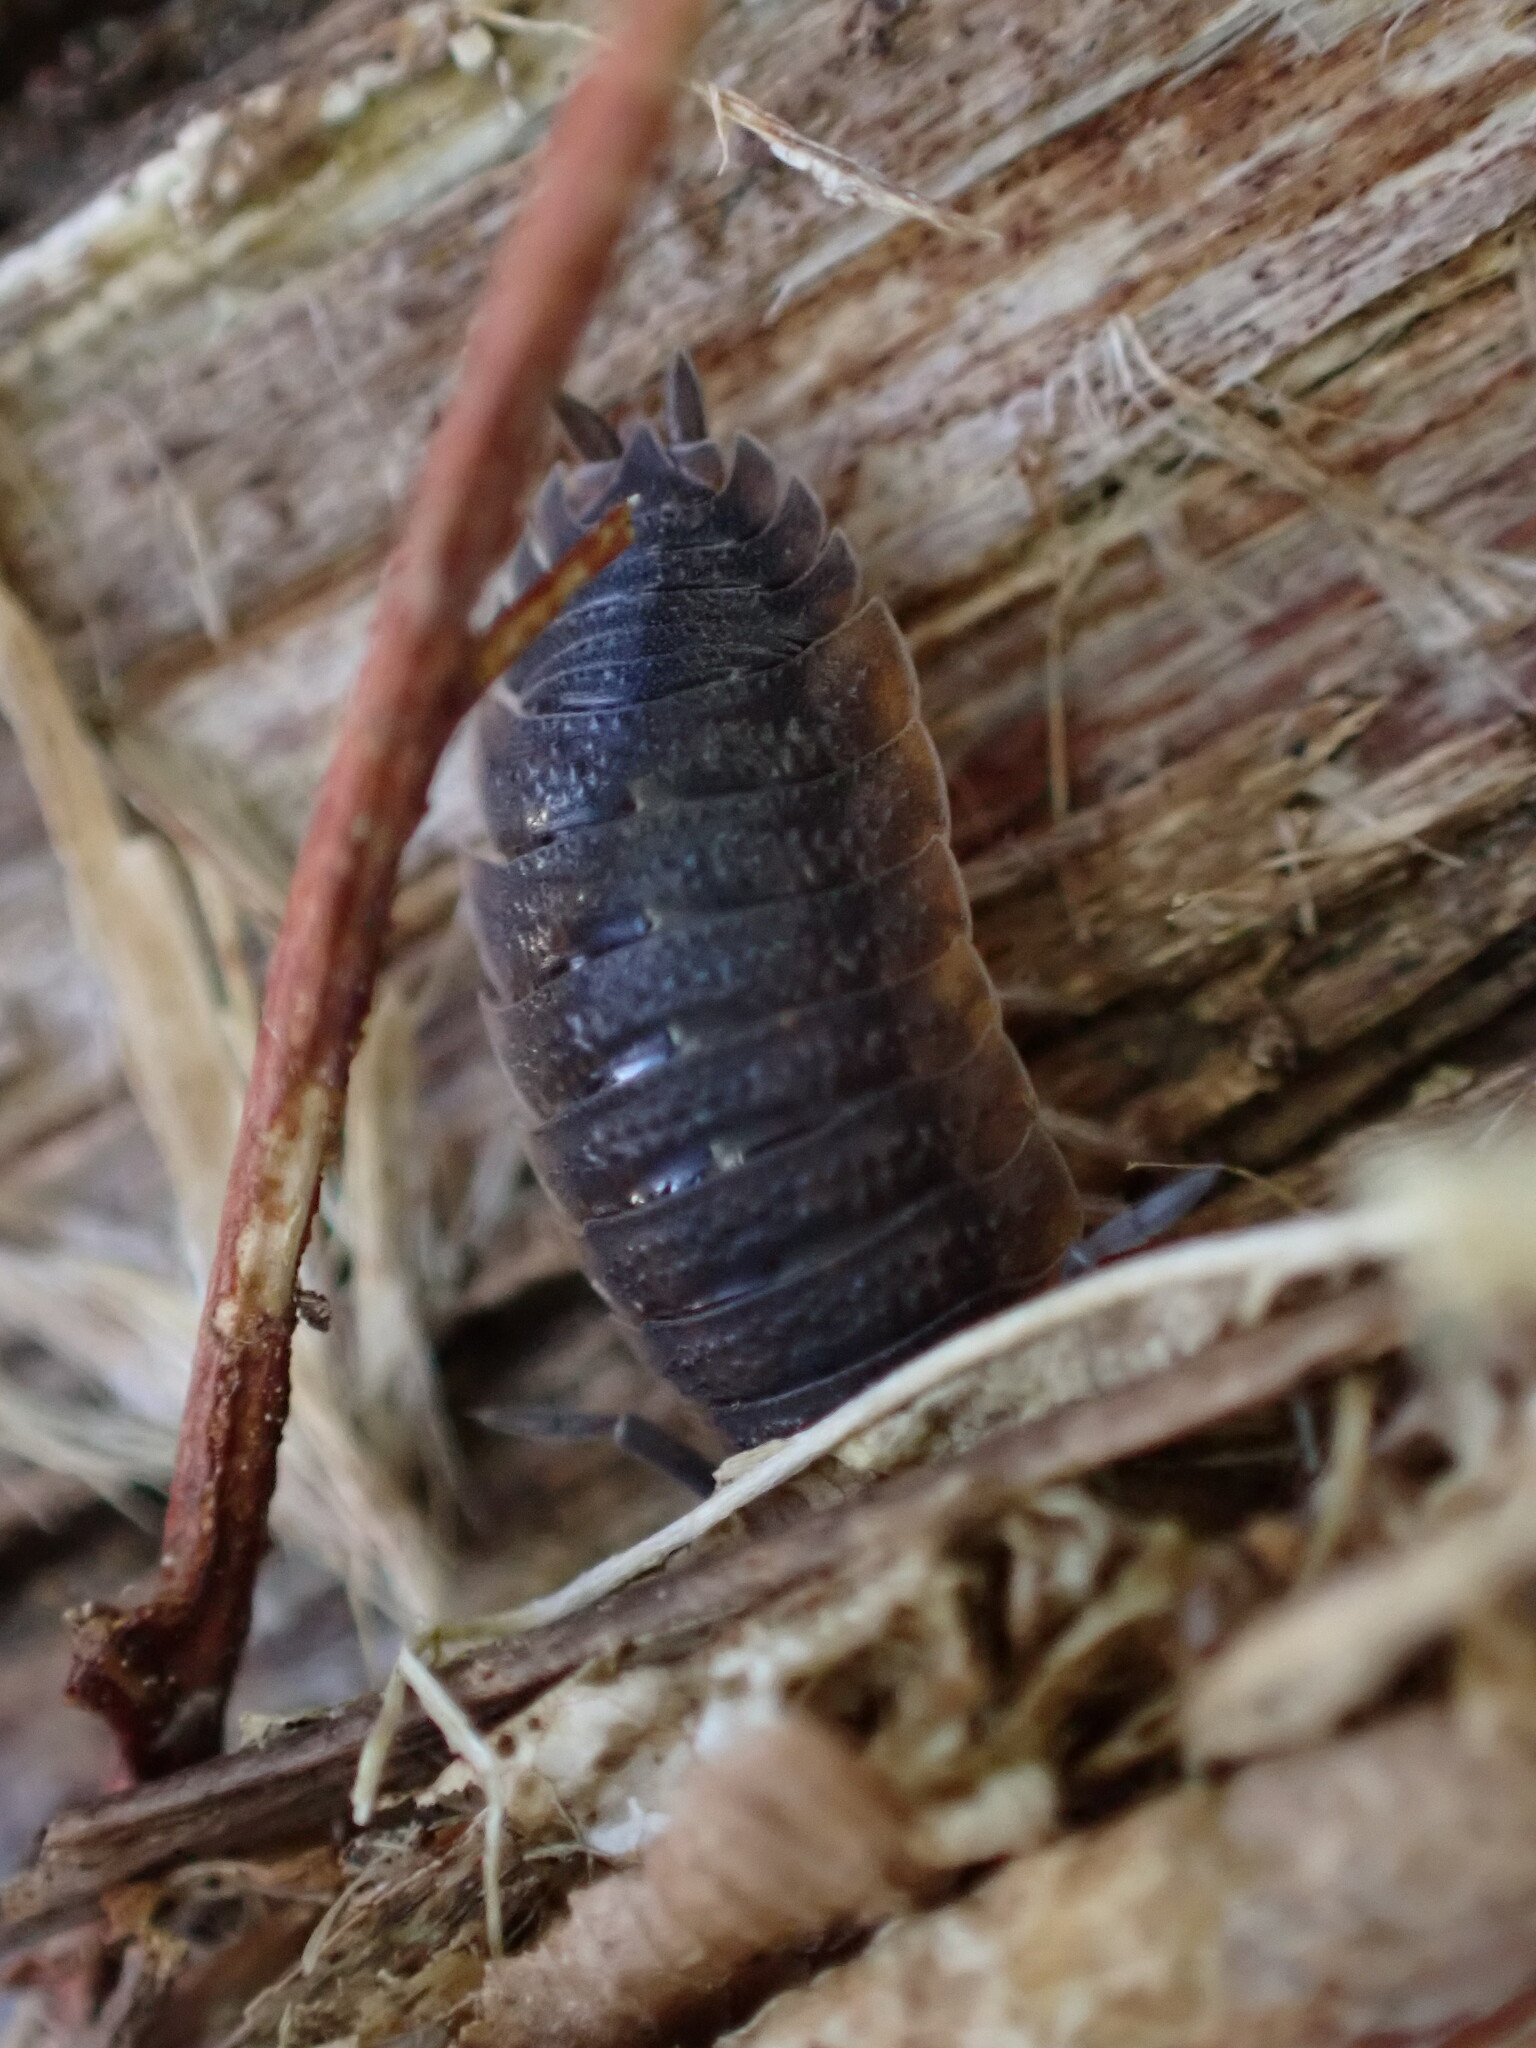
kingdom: Animalia
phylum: Arthropoda
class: Malacostraca
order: Isopoda
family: Porcellionidae
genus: Porcellio
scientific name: Porcellio scaber
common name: Common rough woodlouse
